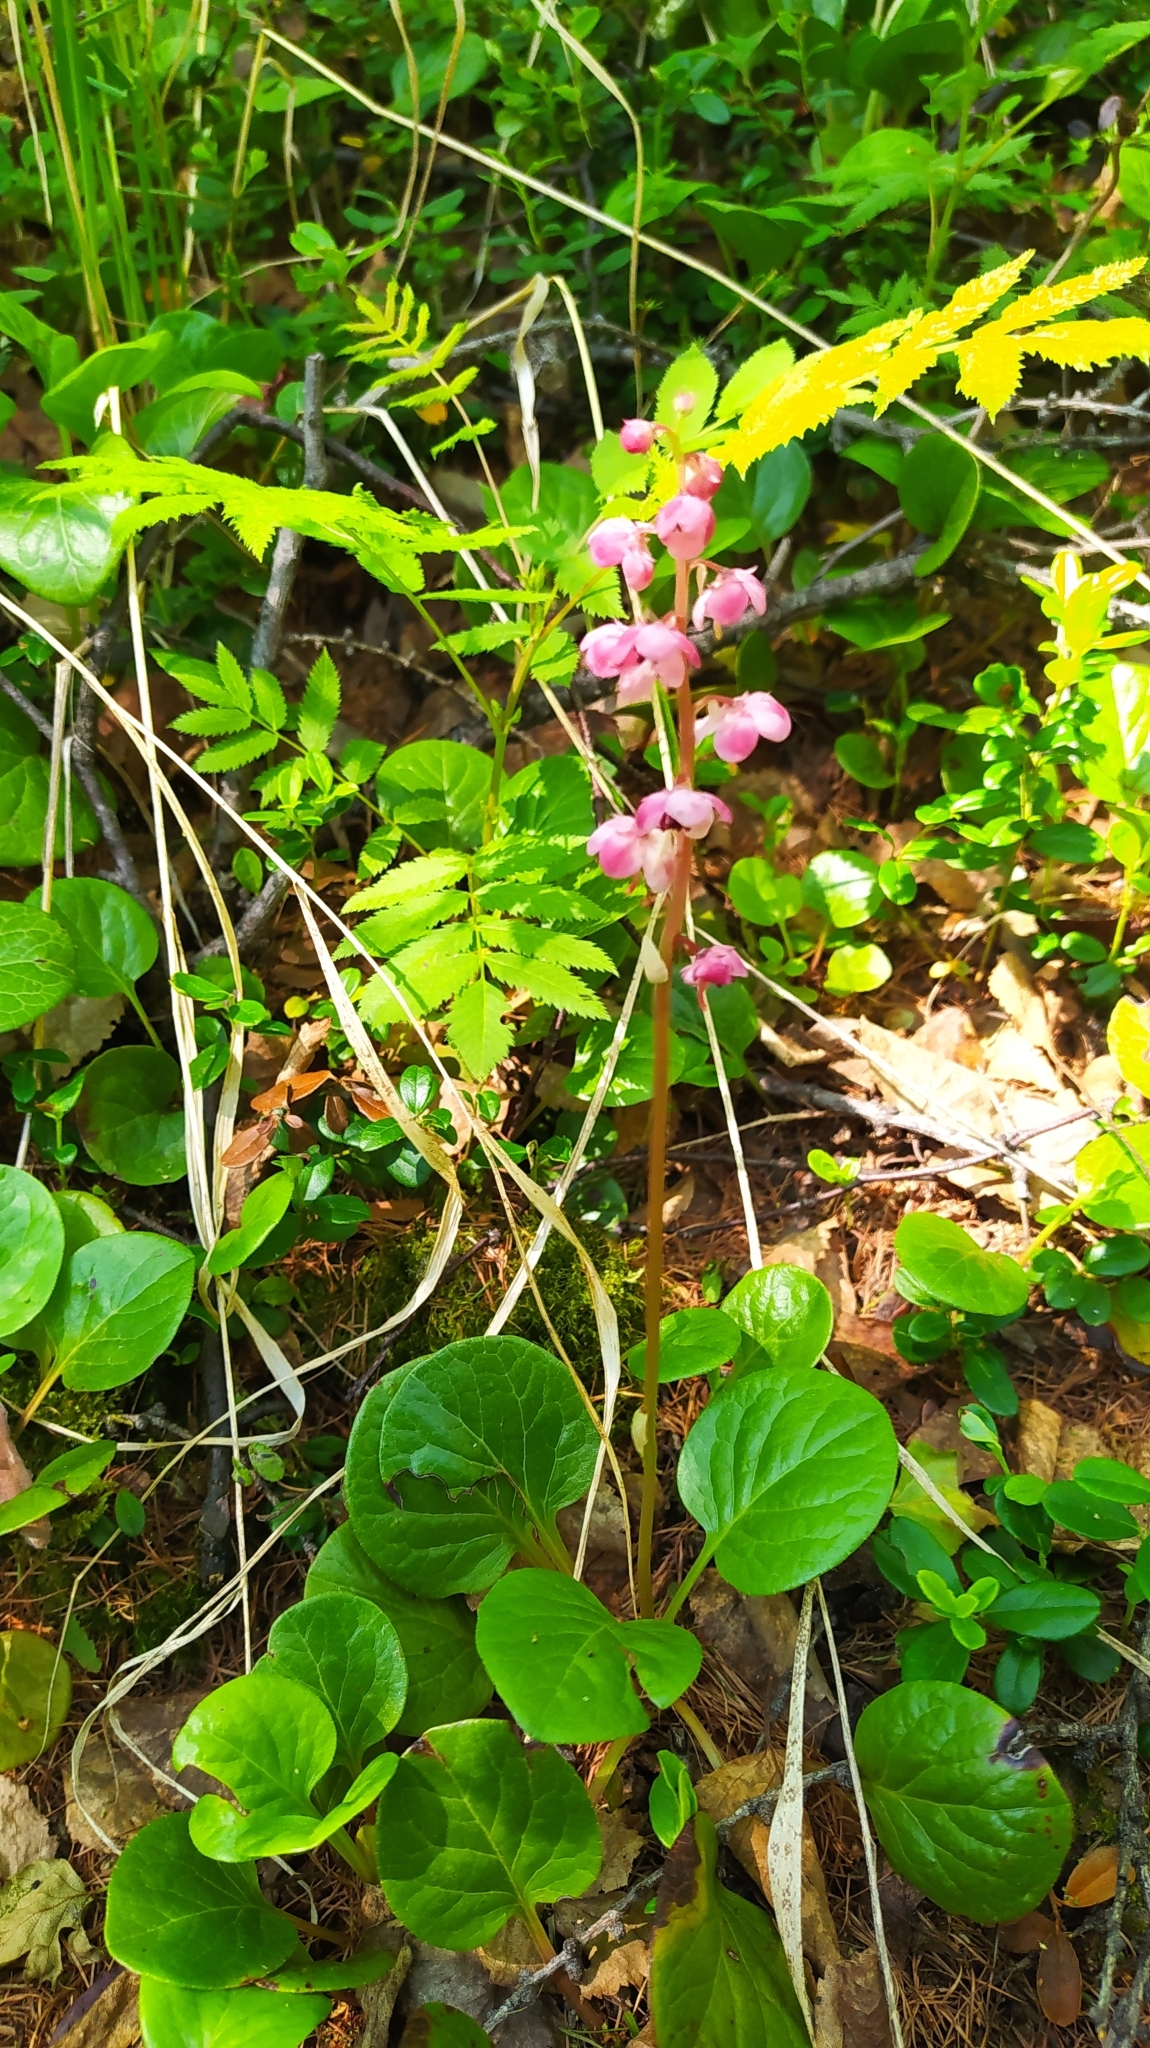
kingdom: Plantae
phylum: Tracheophyta
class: Magnoliopsida
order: Ericales
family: Ericaceae
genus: Pyrola
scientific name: Pyrola asarifolia
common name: Bog wintergreen
